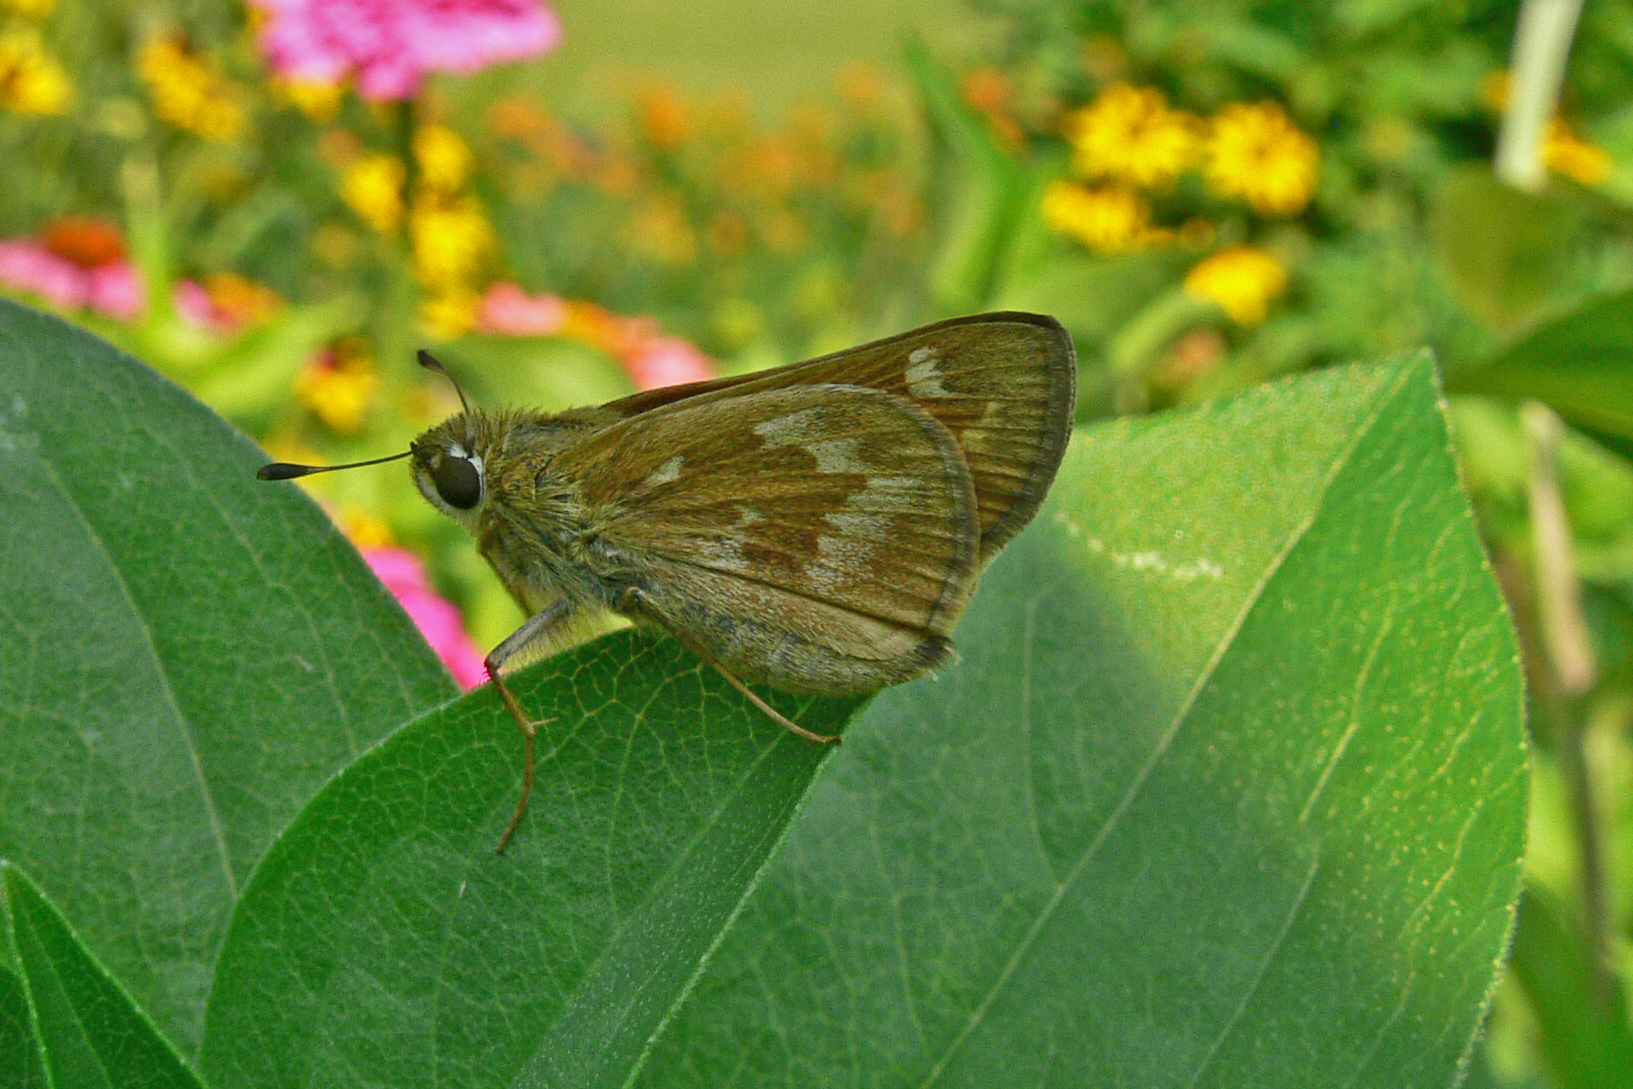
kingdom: Animalia
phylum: Arthropoda
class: Insecta
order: Lepidoptera
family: Hesperiidae
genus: Atalopedes
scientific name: Atalopedes
